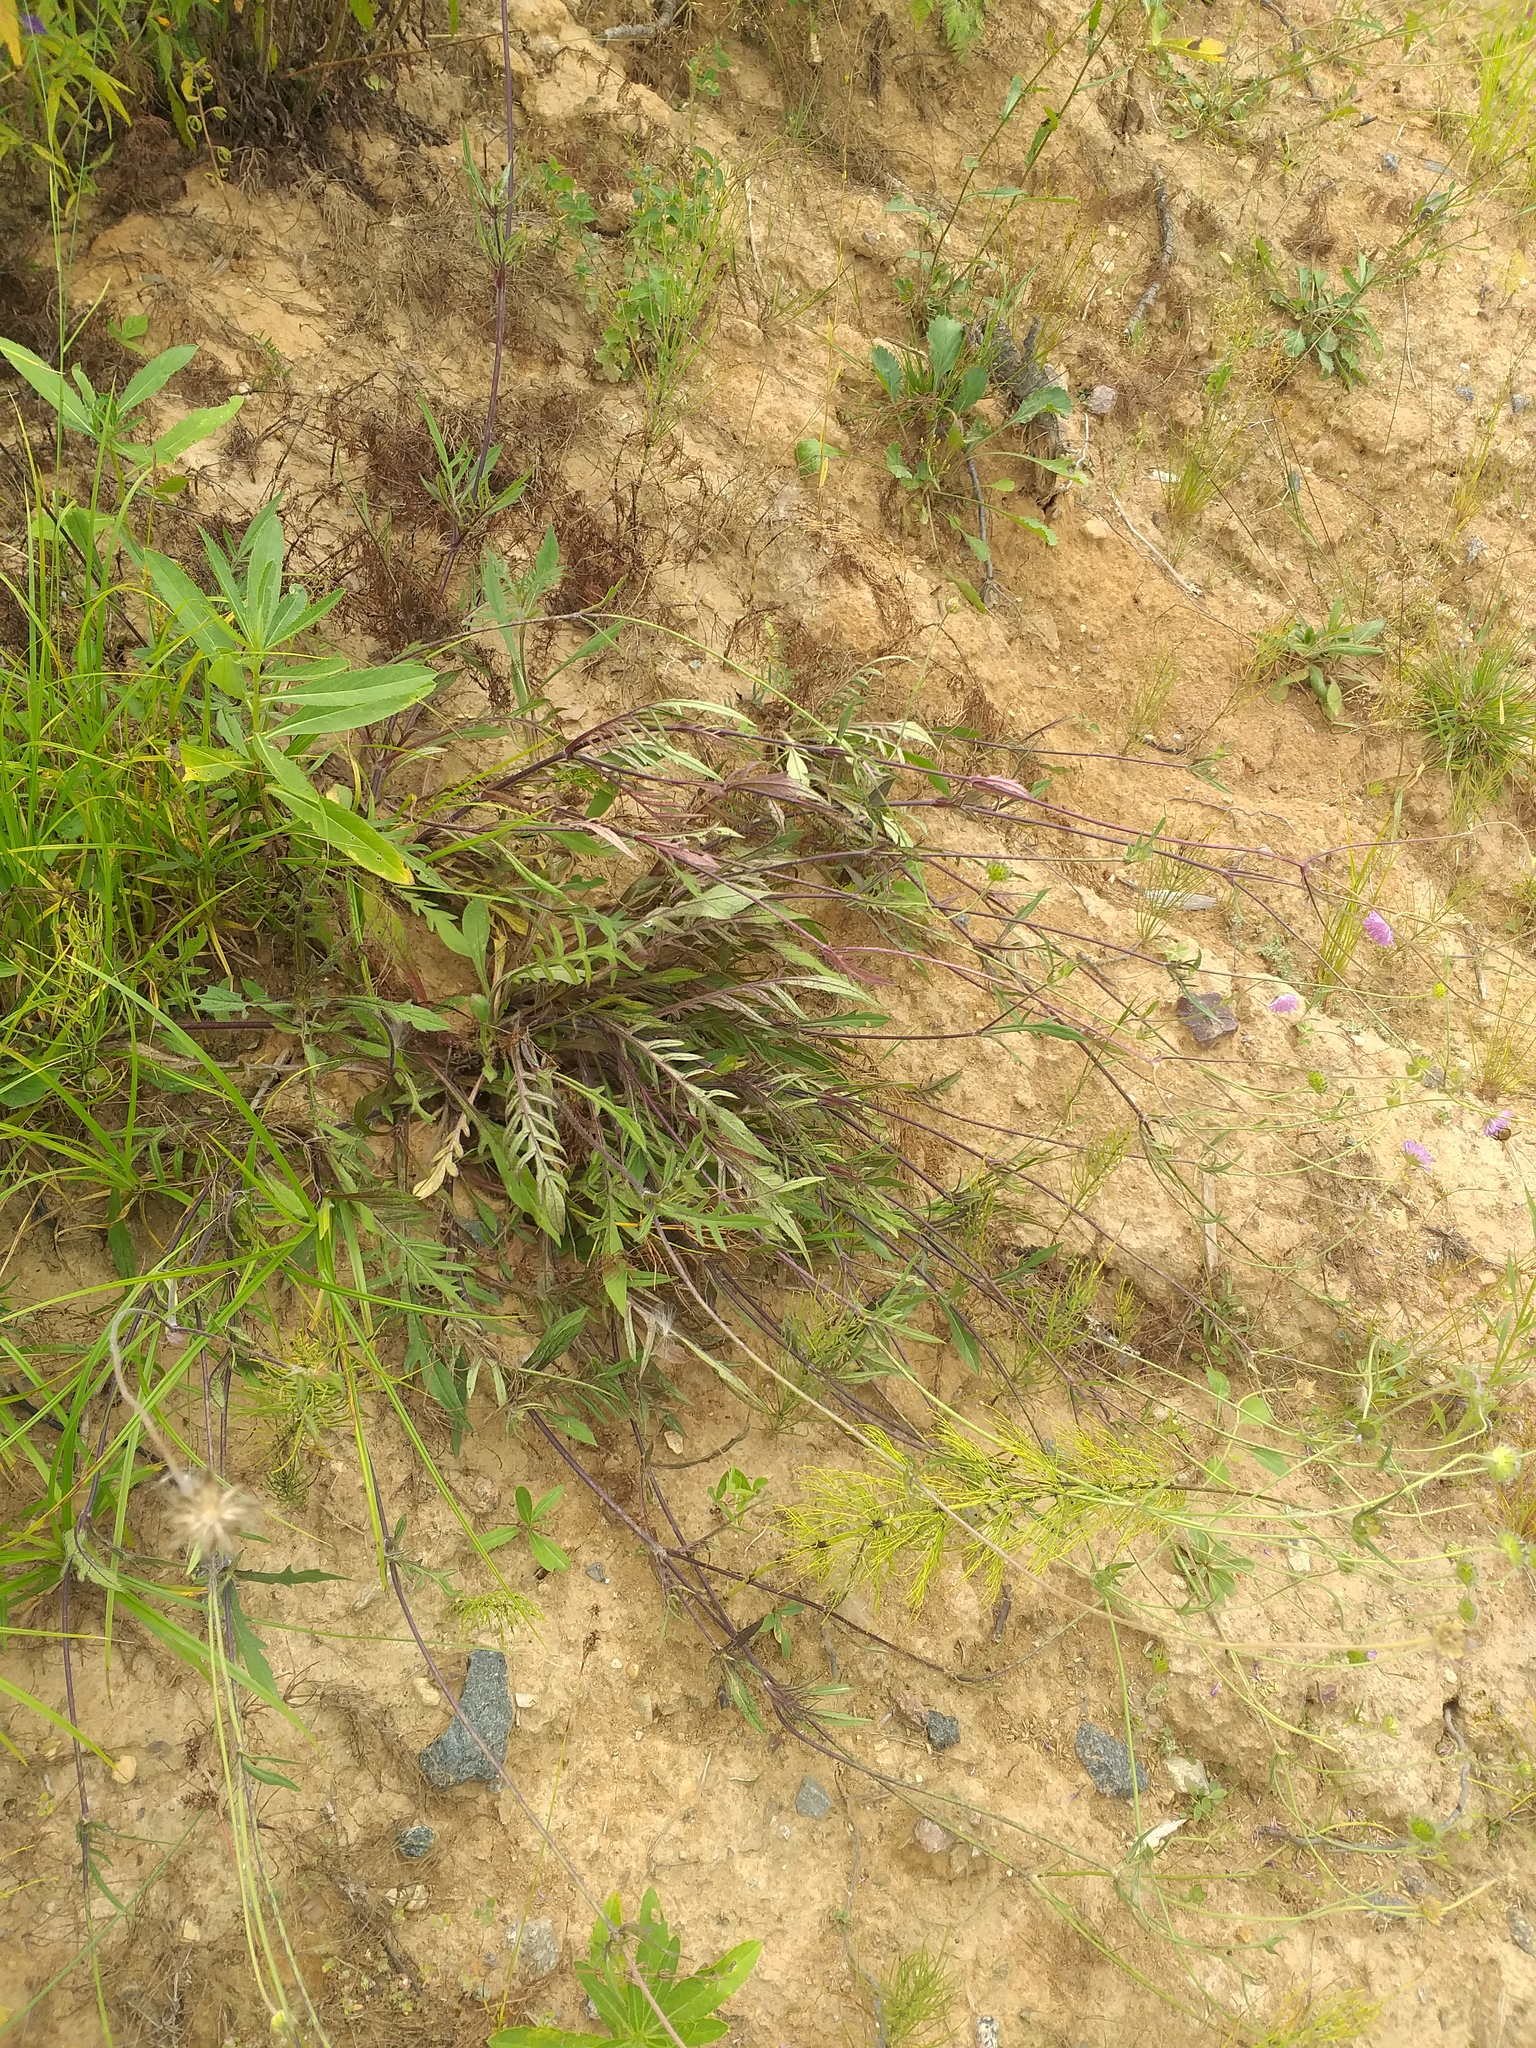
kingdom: Plantae
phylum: Tracheophyta
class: Magnoliopsida
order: Dipsacales
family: Caprifoliaceae
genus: Knautia
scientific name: Knautia arvensis
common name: Field scabiosa
